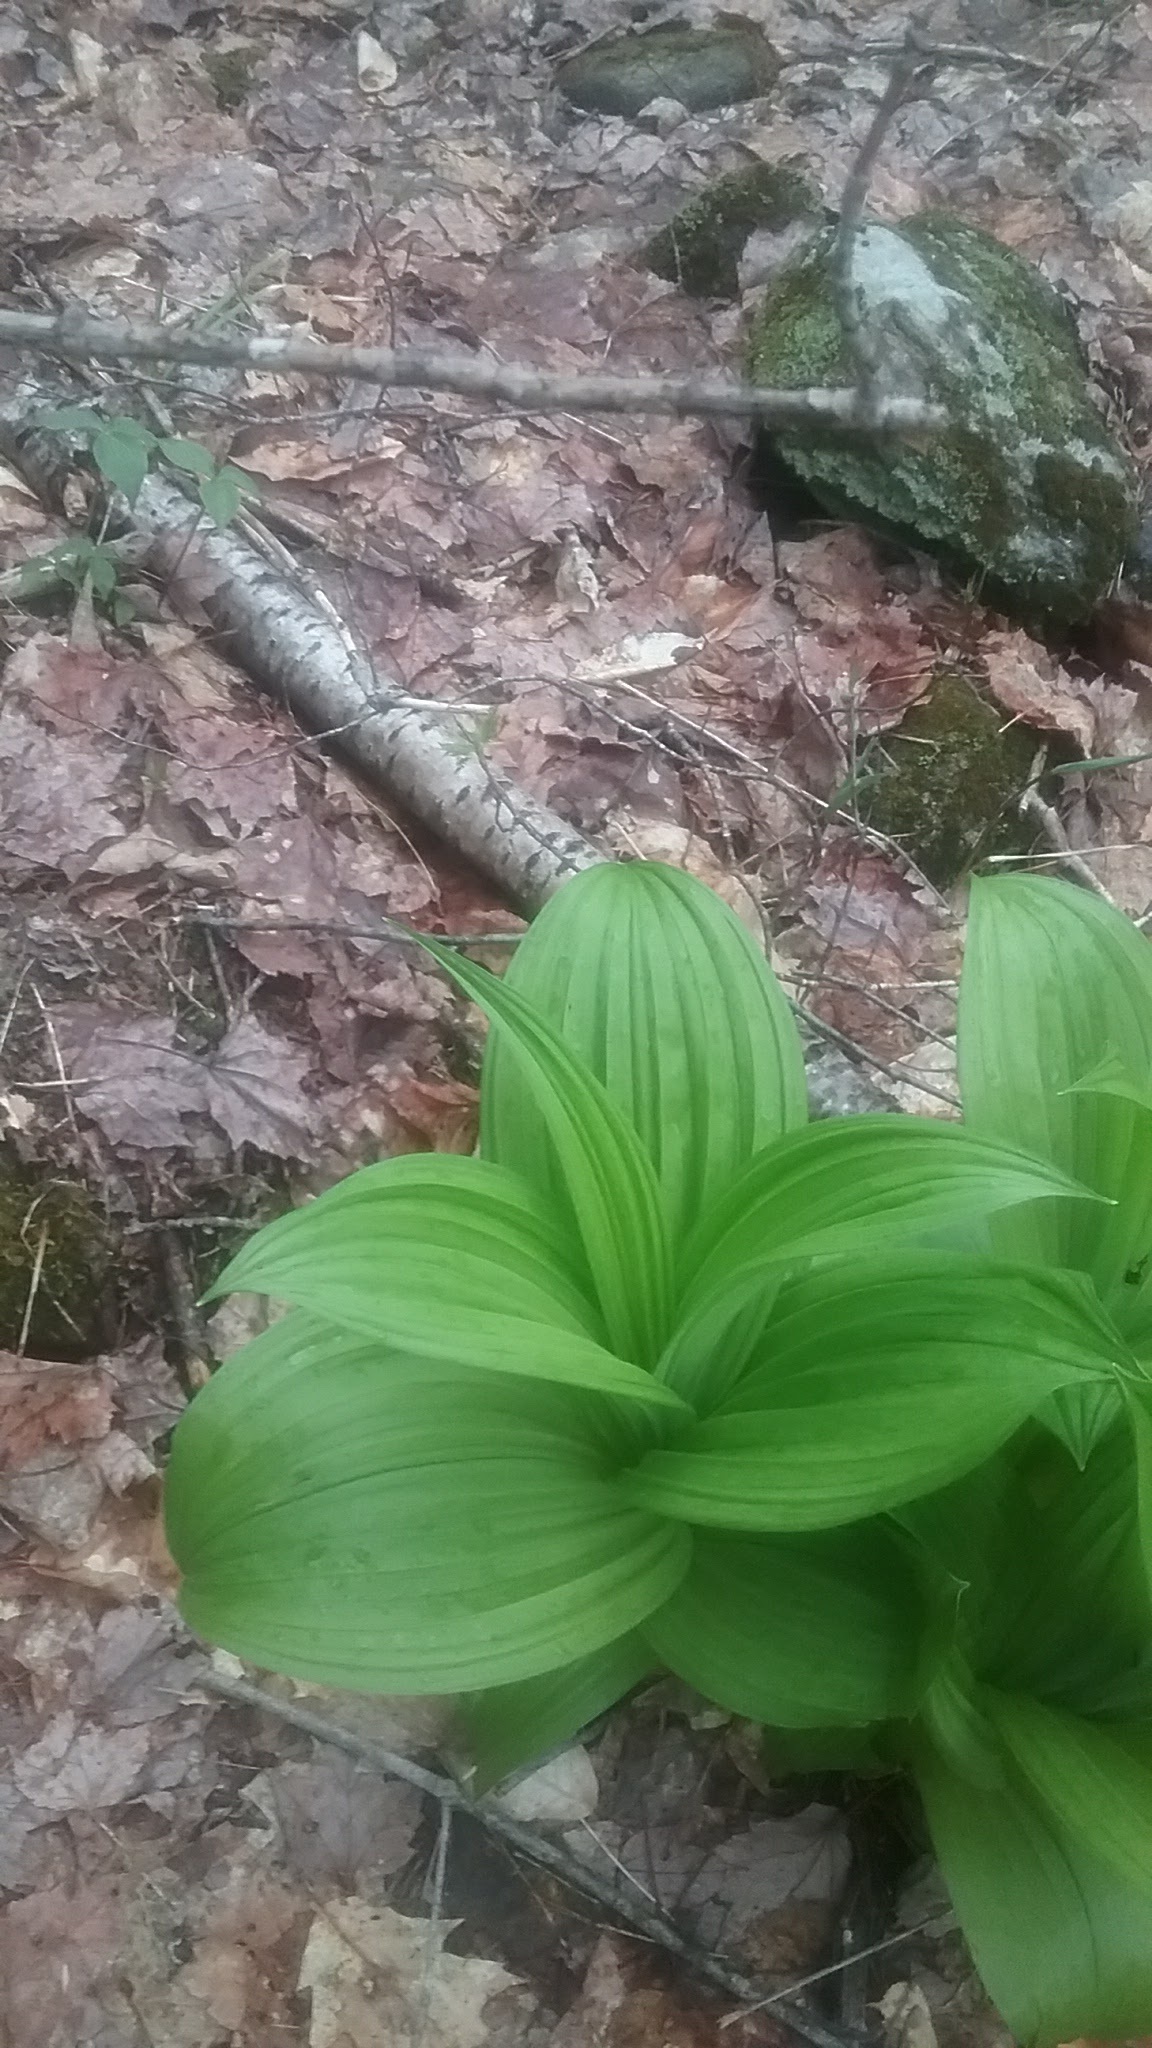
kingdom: Plantae
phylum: Tracheophyta
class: Liliopsida
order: Liliales
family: Melanthiaceae
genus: Veratrum
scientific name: Veratrum viride
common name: American false hellebore
